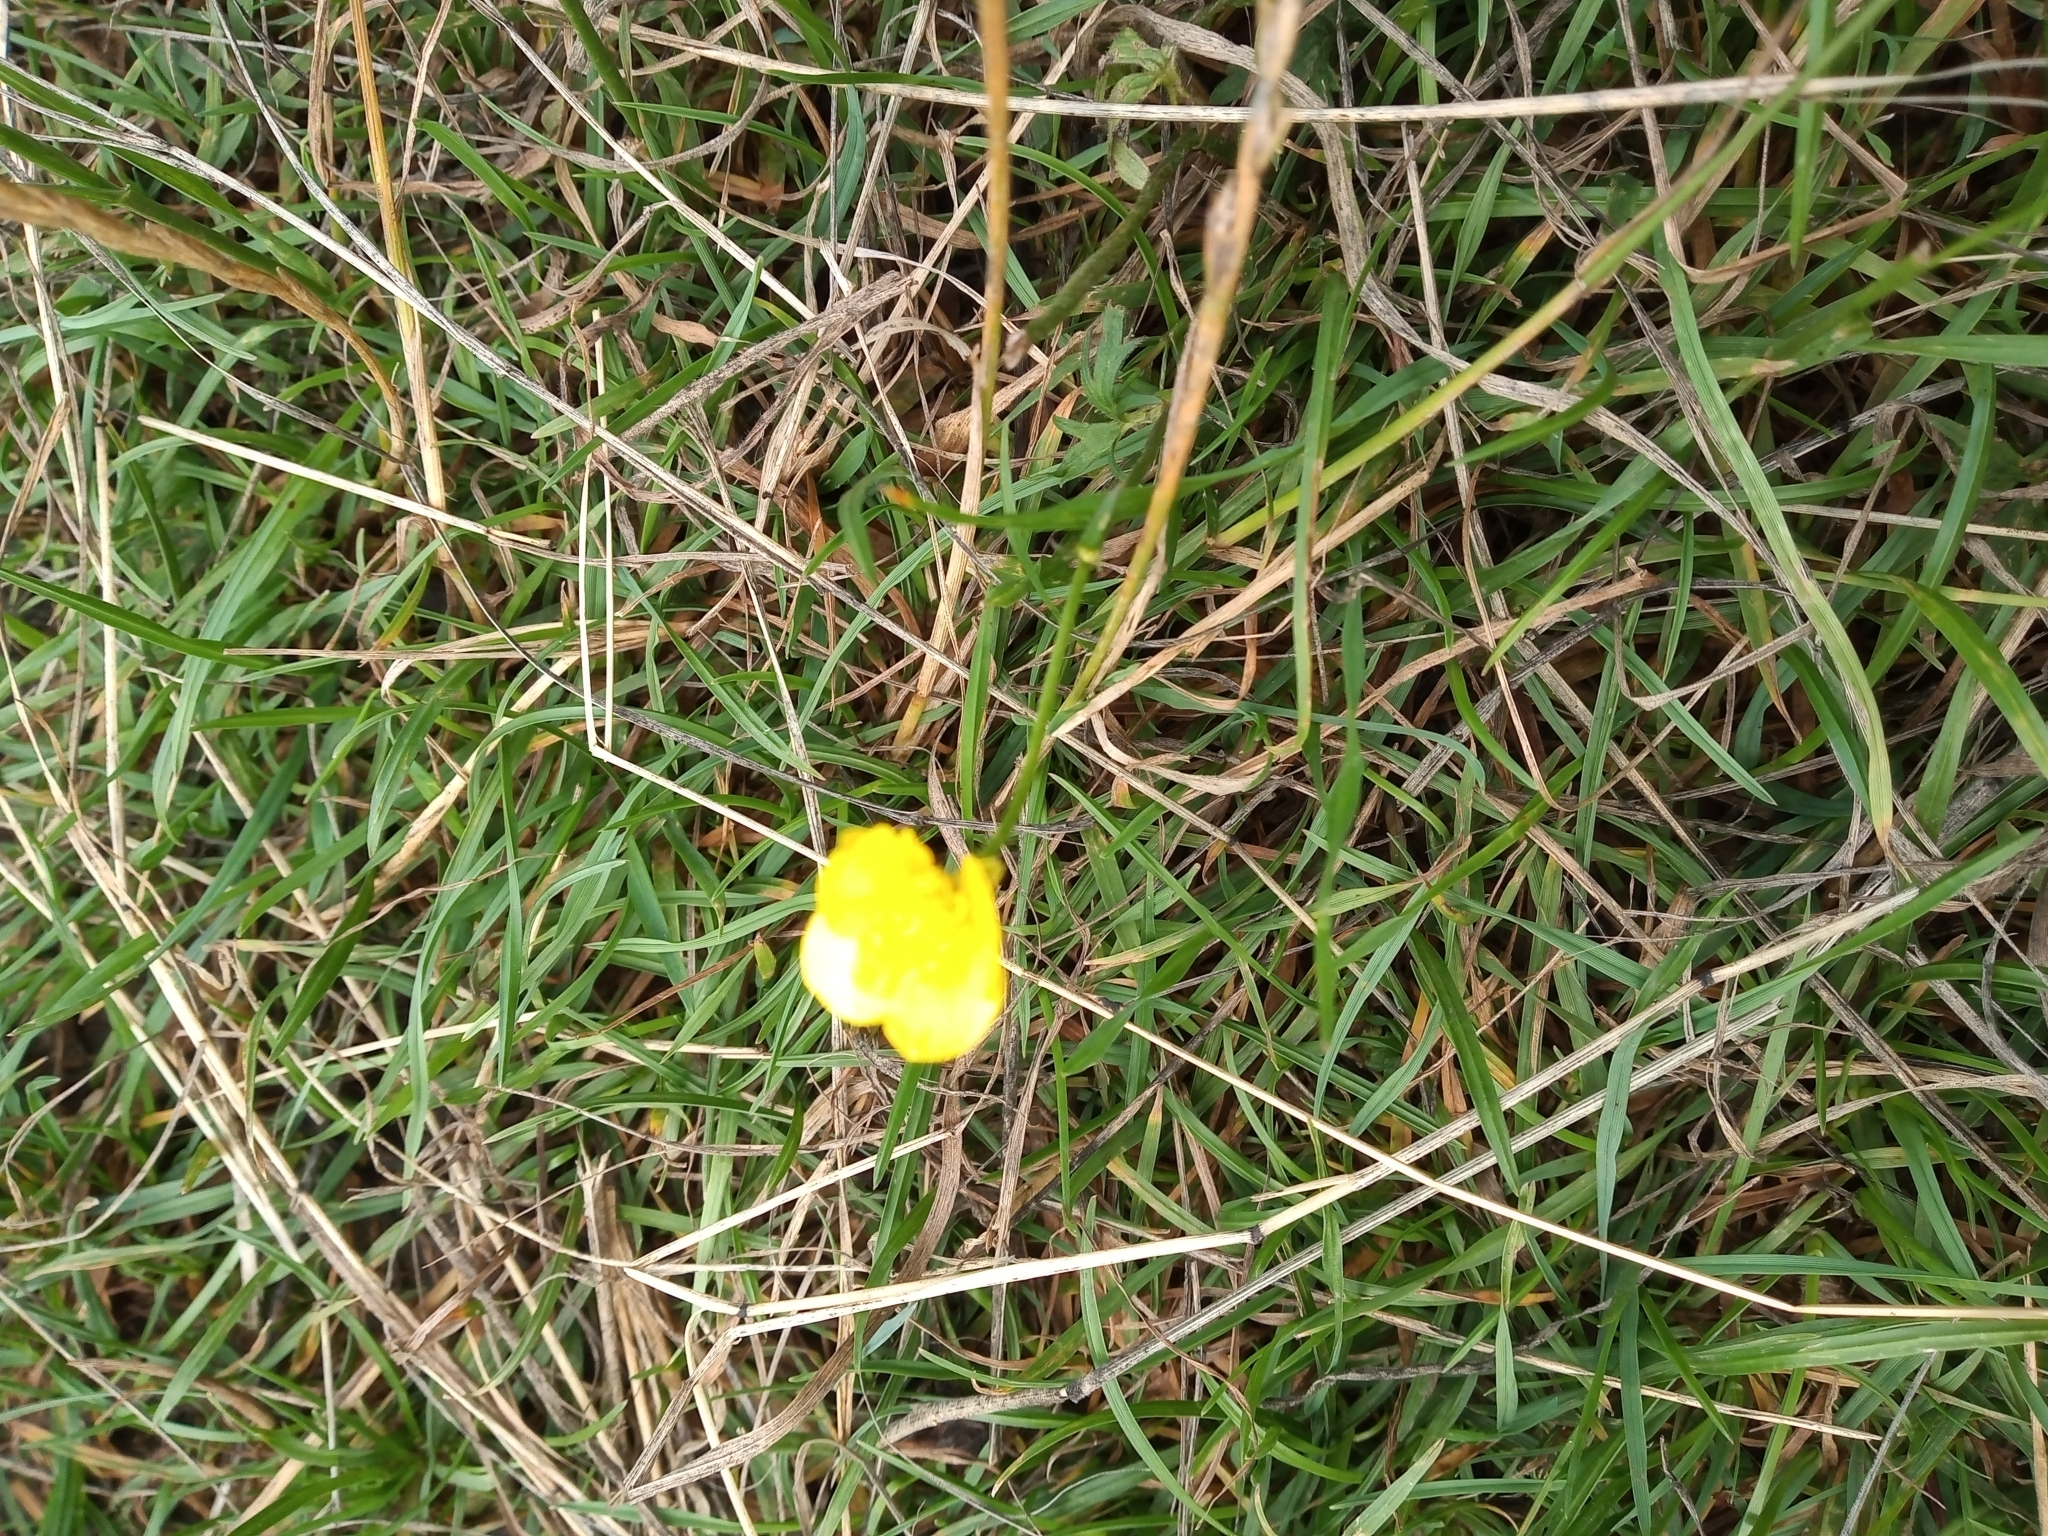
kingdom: Plantae
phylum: Tracheophyta
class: Magnoliopsida
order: Ranunculales
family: Ranunculaceae
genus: Ranunculus
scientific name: Ranunculus acris
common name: Meadow buttercup
